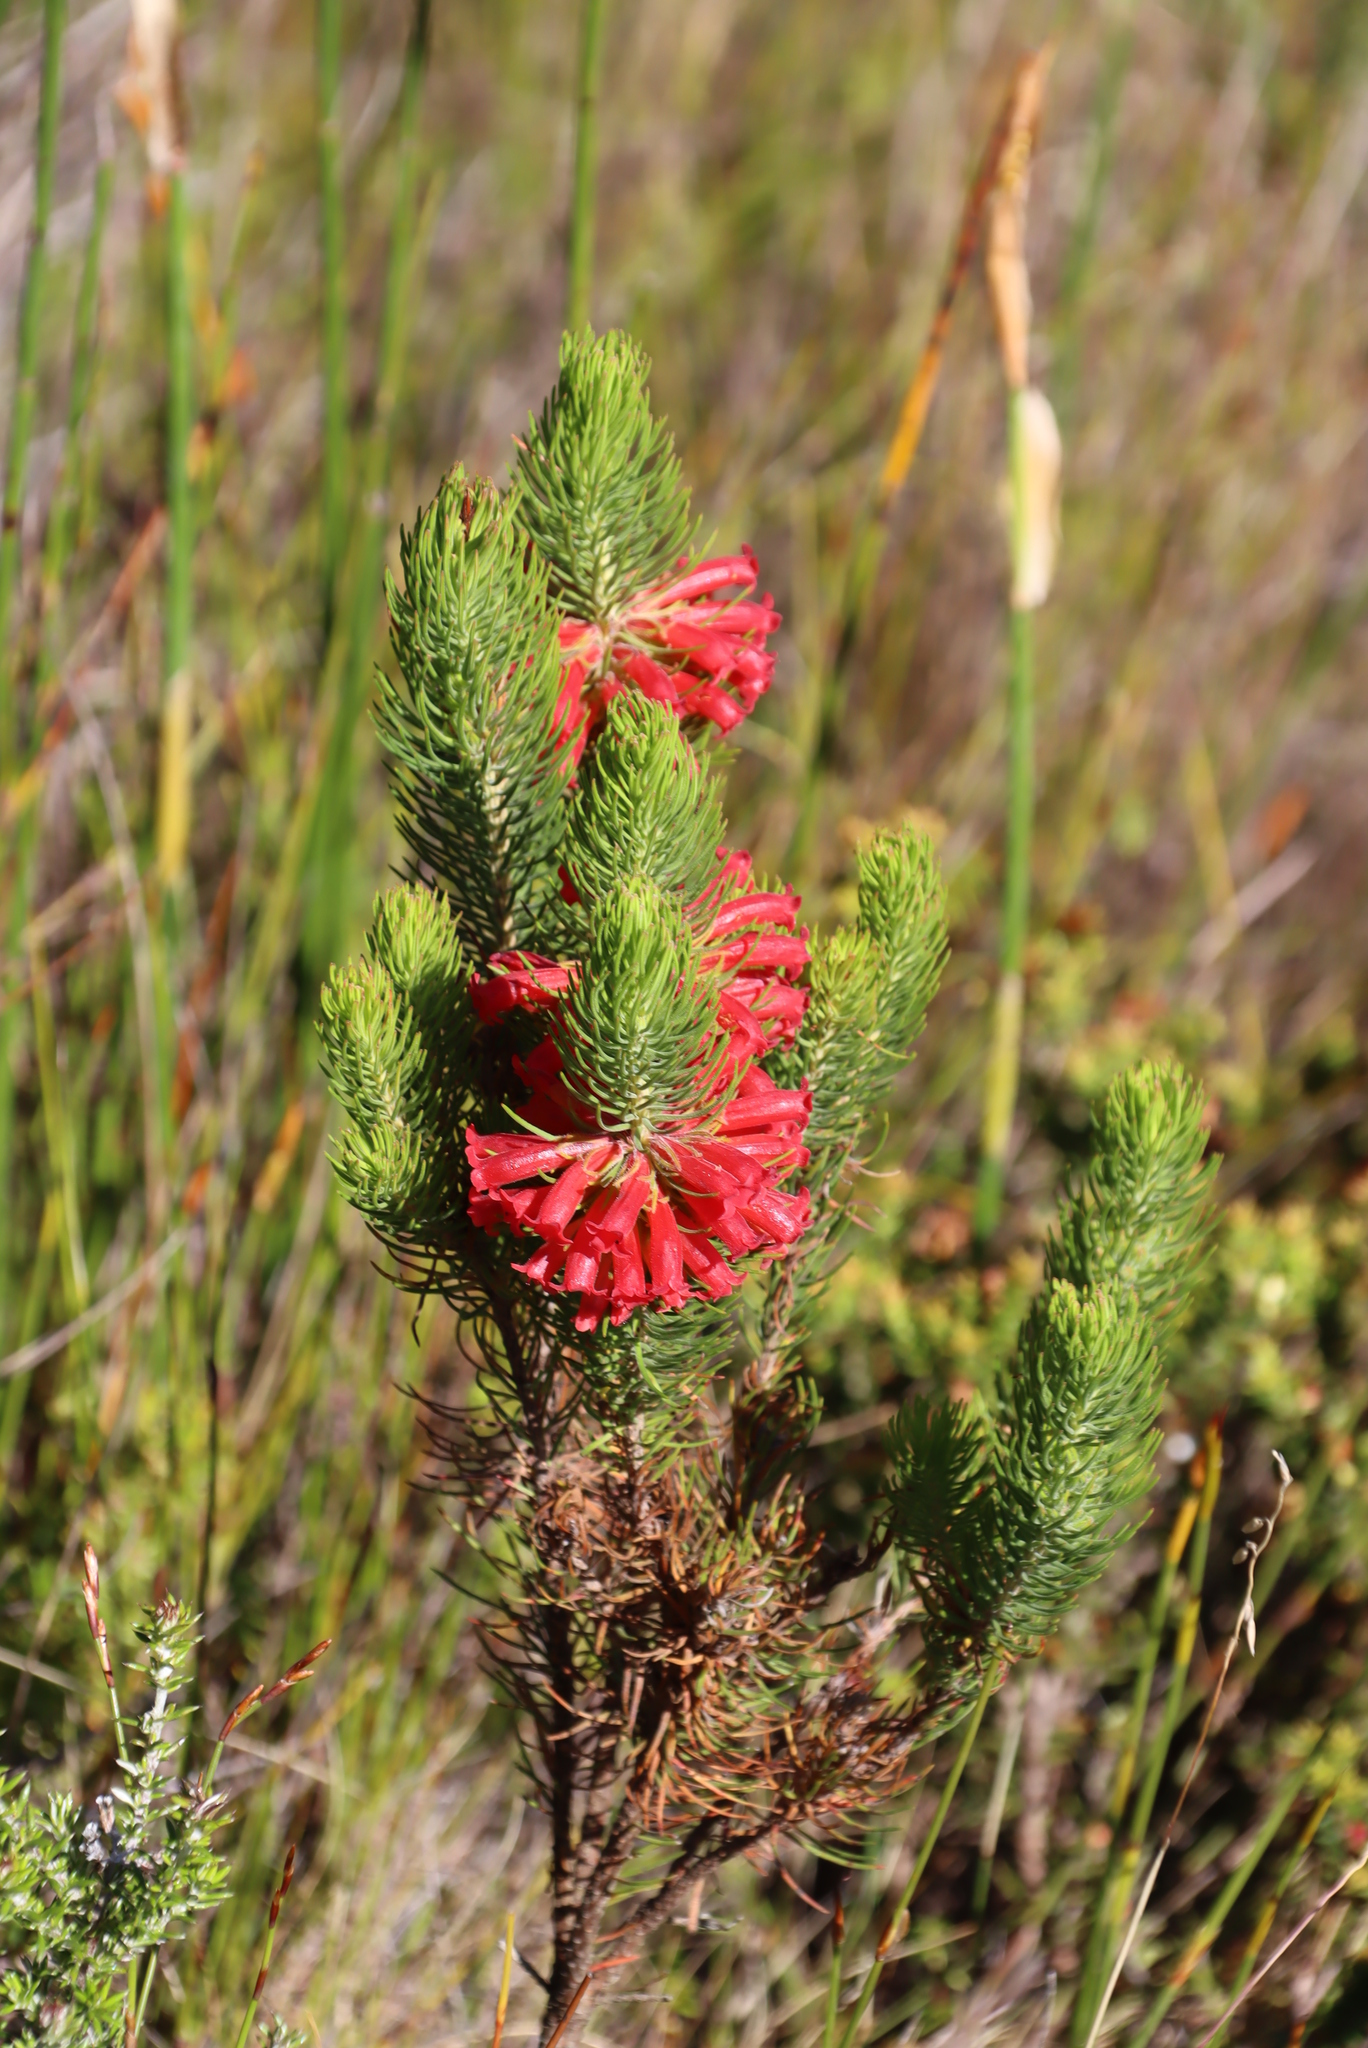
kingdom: Plantae
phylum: Tracheophyta
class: Magnoliopsida
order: Ericales
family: Ericaceae
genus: Erica
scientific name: Erica viscaria
